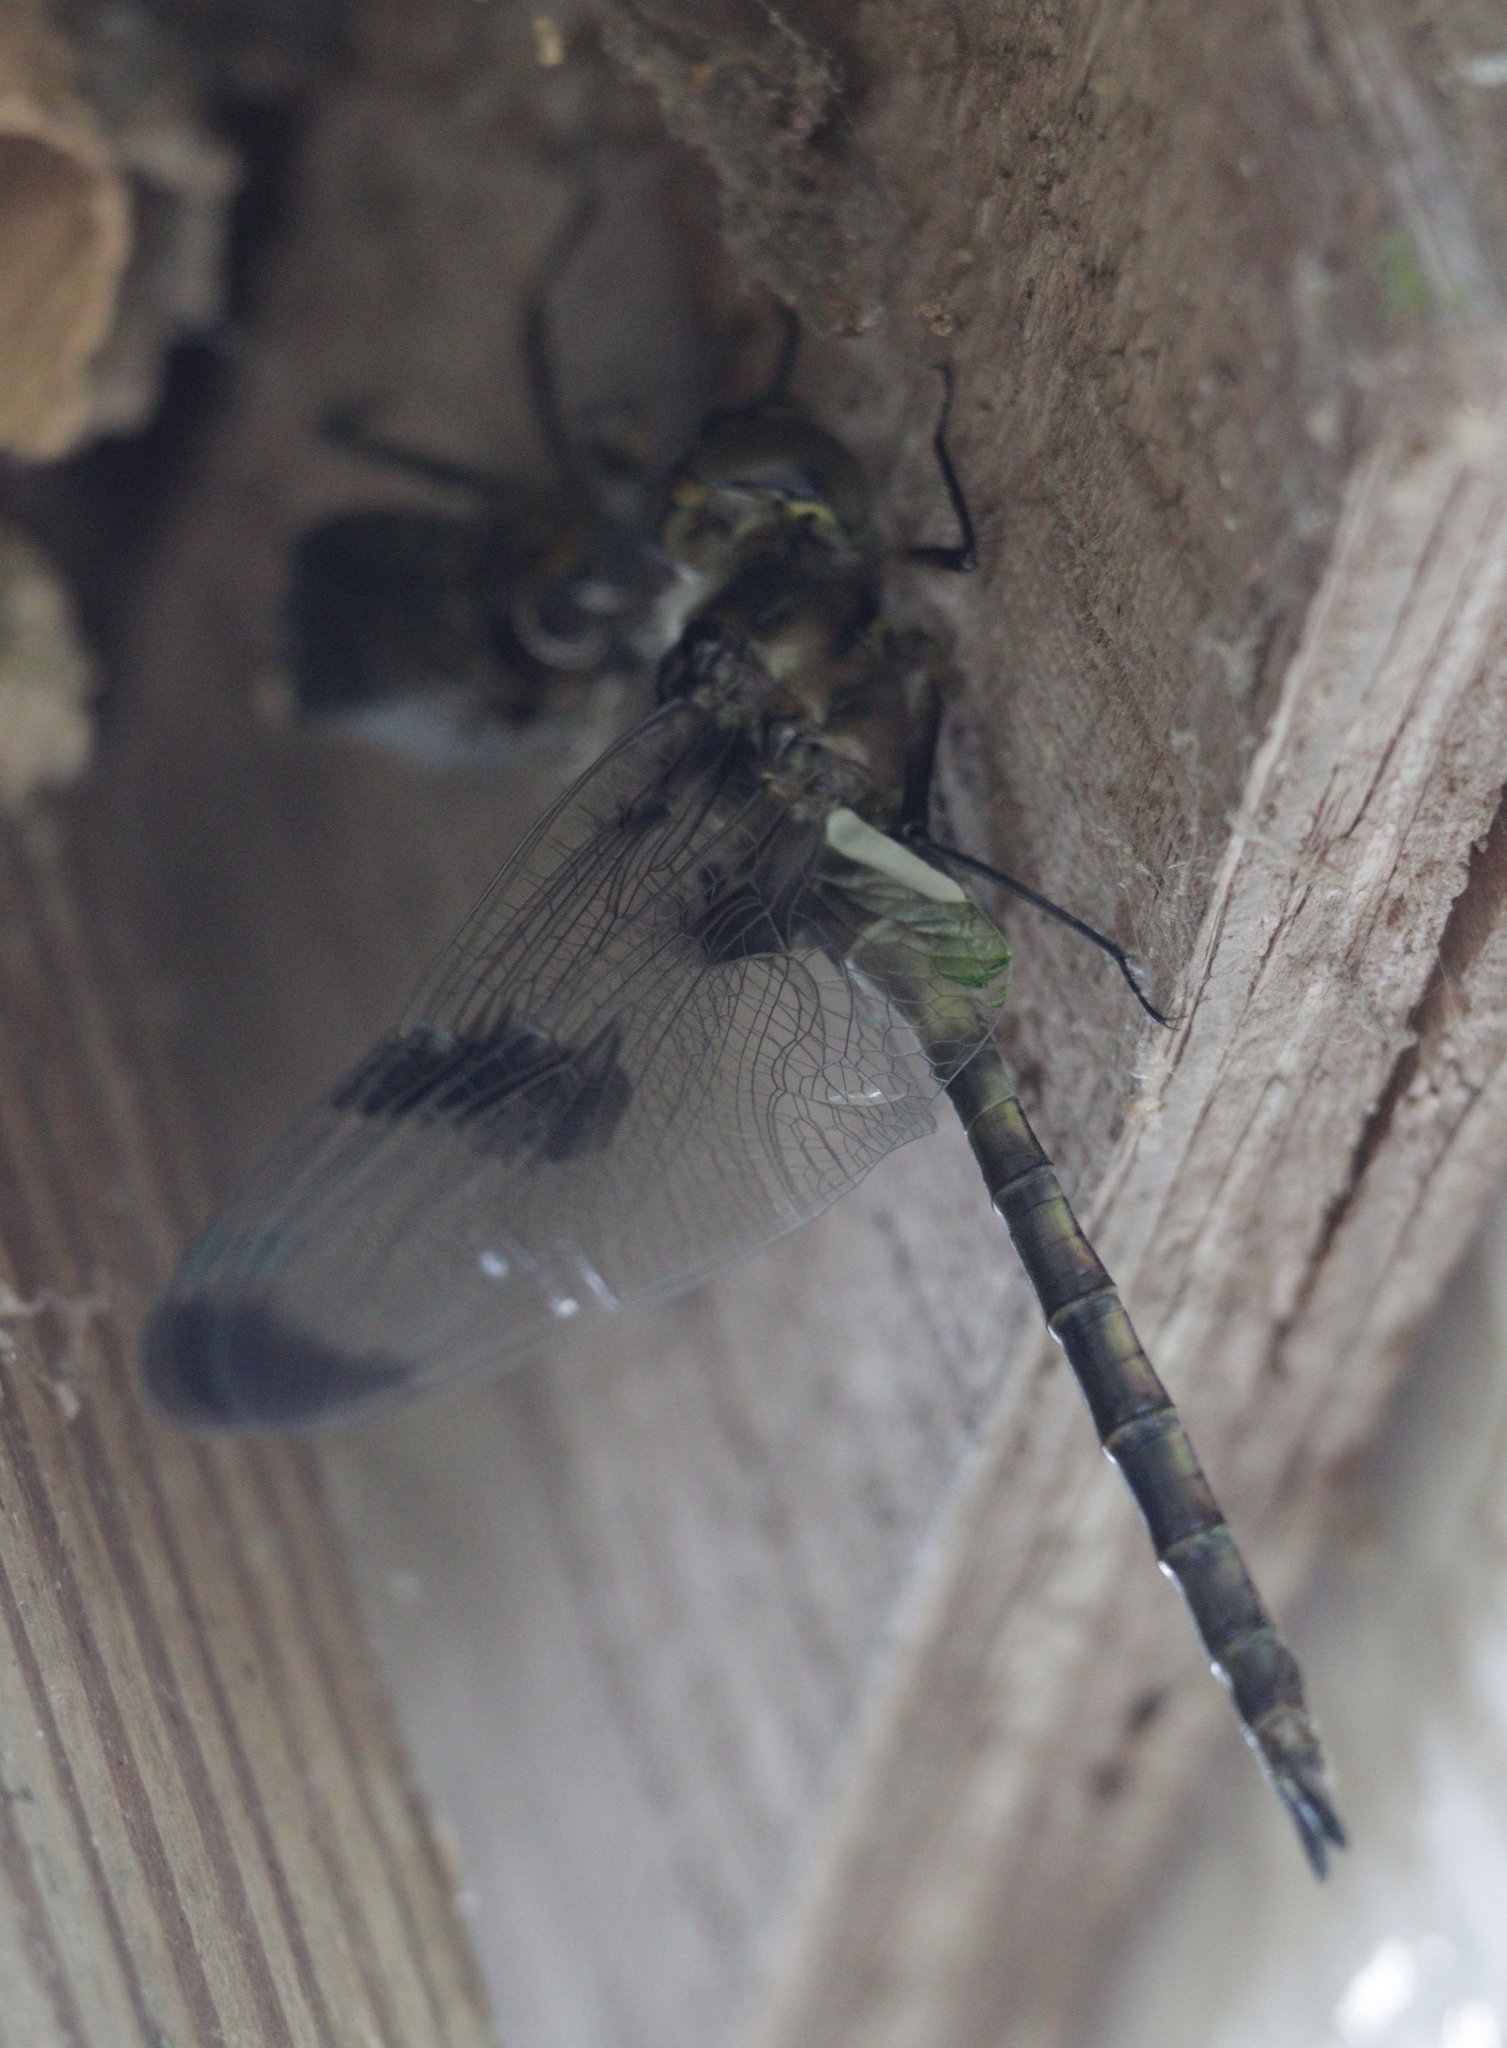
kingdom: Animalia
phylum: Arthropoda
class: Insecta
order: Odonata
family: Corduliidae
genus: Epitheca
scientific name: Epitheca princeps
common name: Prince baskettail
